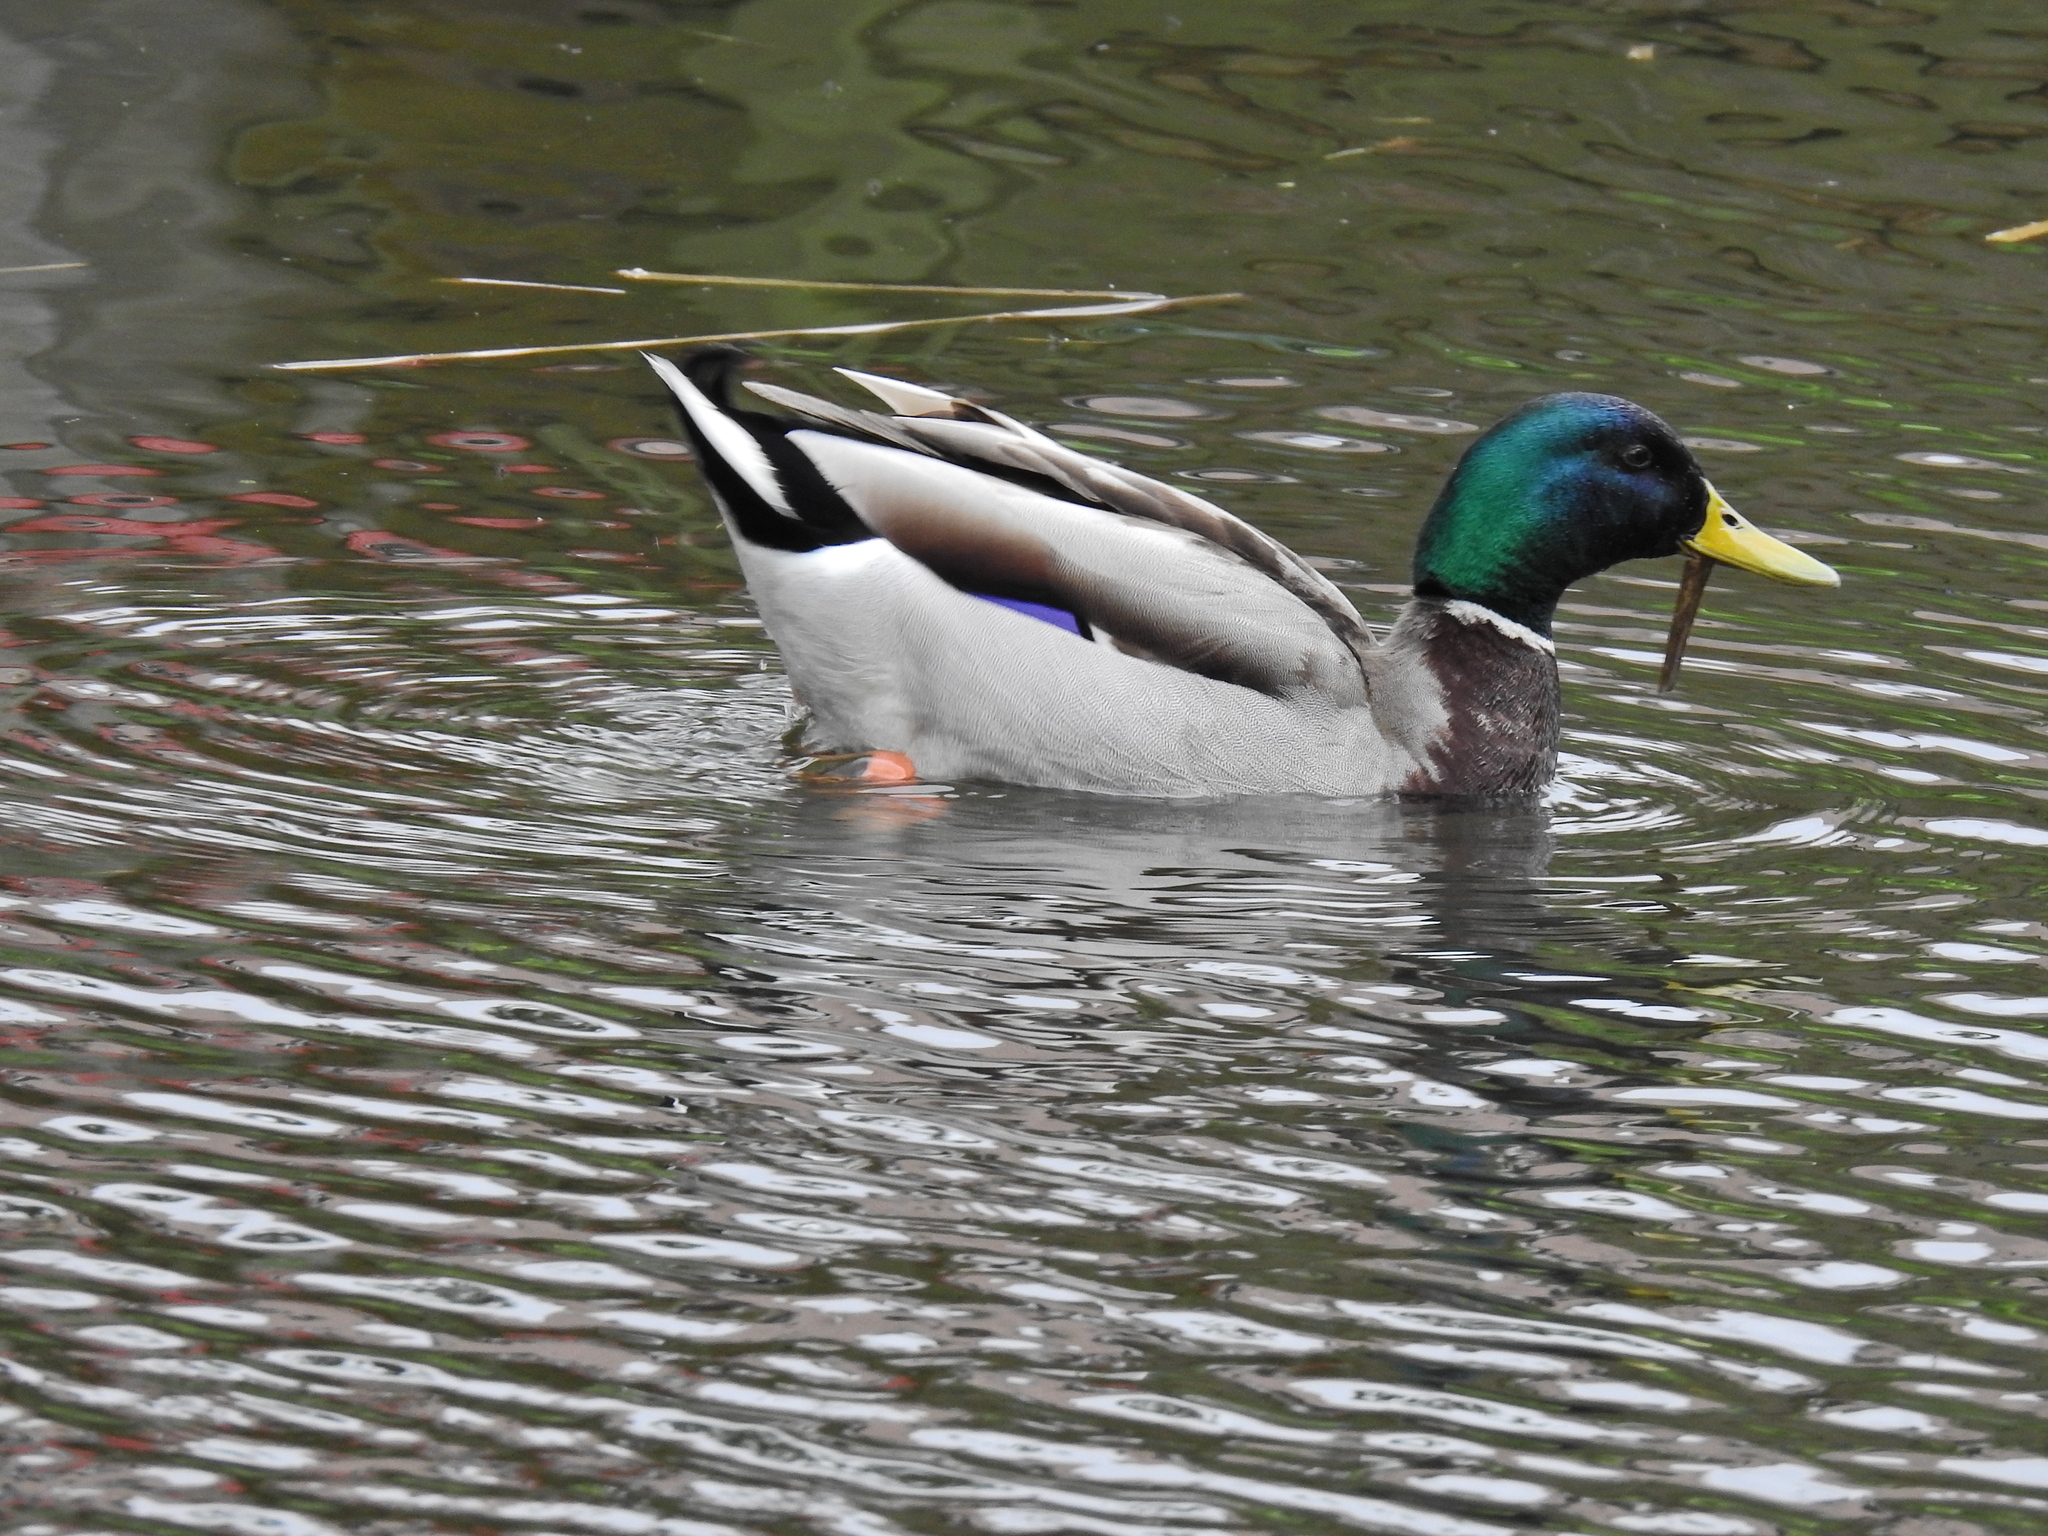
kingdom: Animalia
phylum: Chordata
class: Aves
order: Anseriformes
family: Anatidae
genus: Anas
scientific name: Anas platyrhynchos
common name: Mallard
